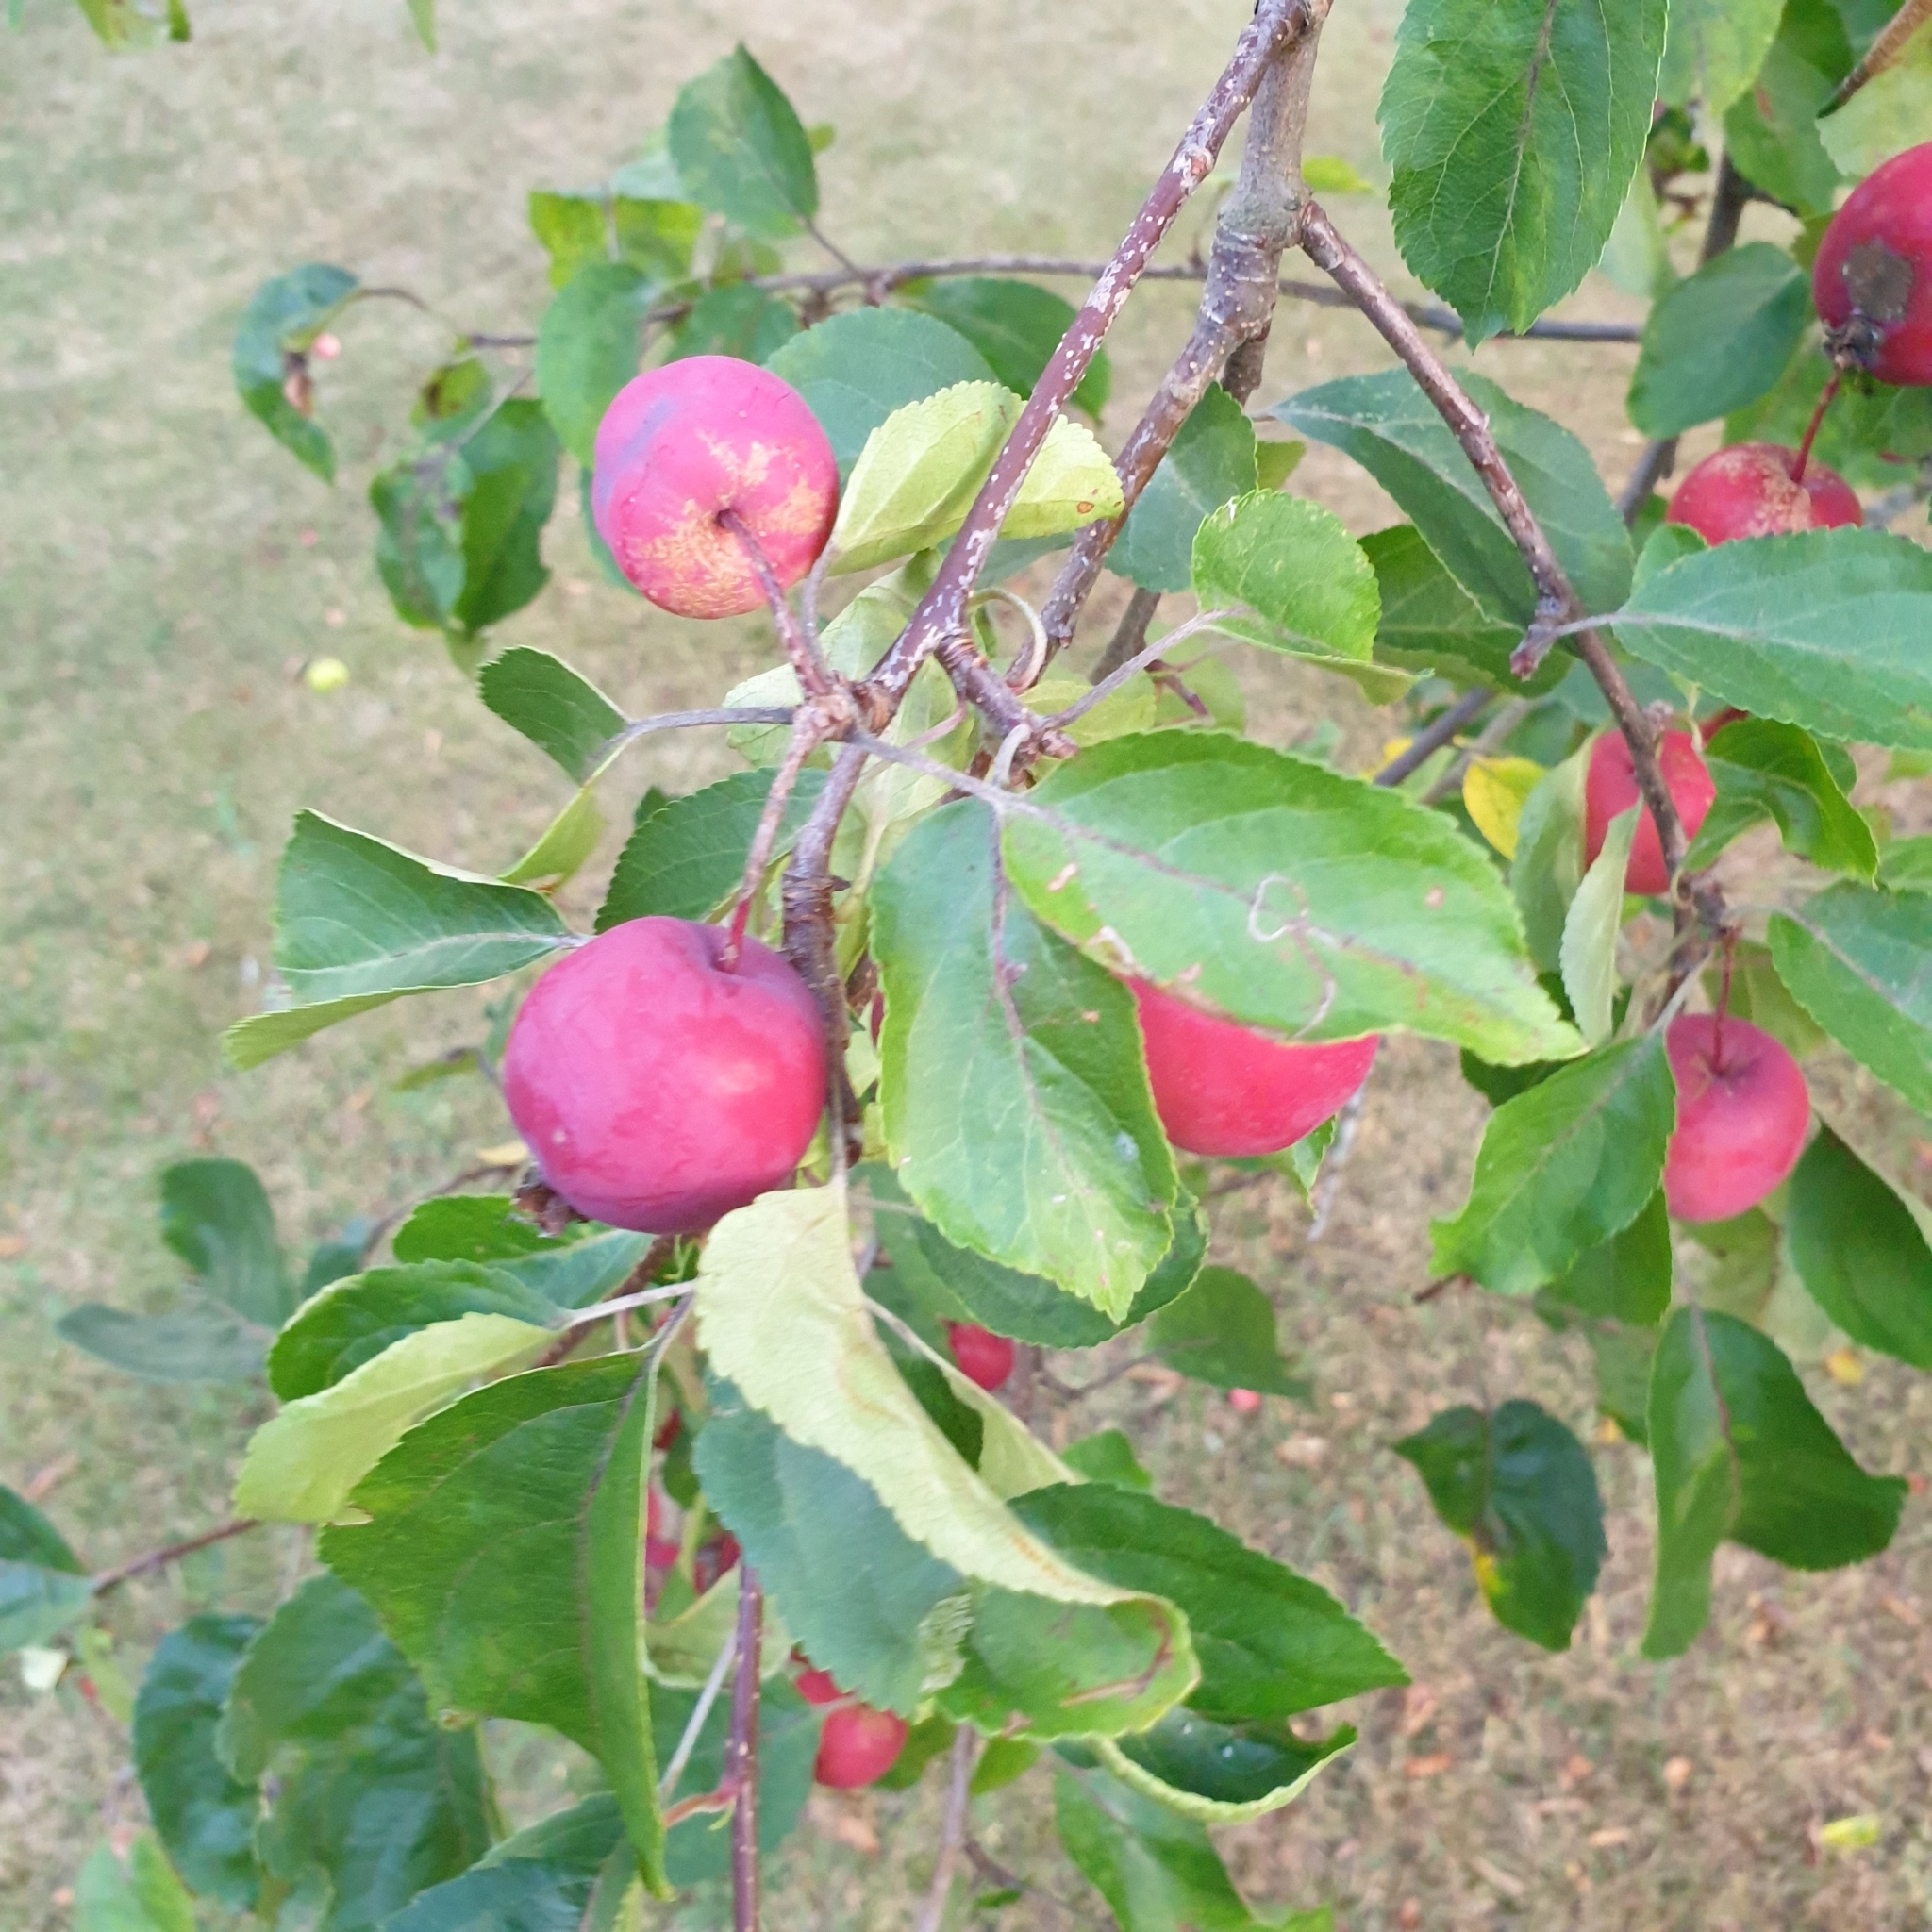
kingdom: Plantae
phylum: Tracheophyta
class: Magnoliopsida
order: Rosales
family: Rosaceae
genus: Malus
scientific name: Malus domestica
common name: Apple
